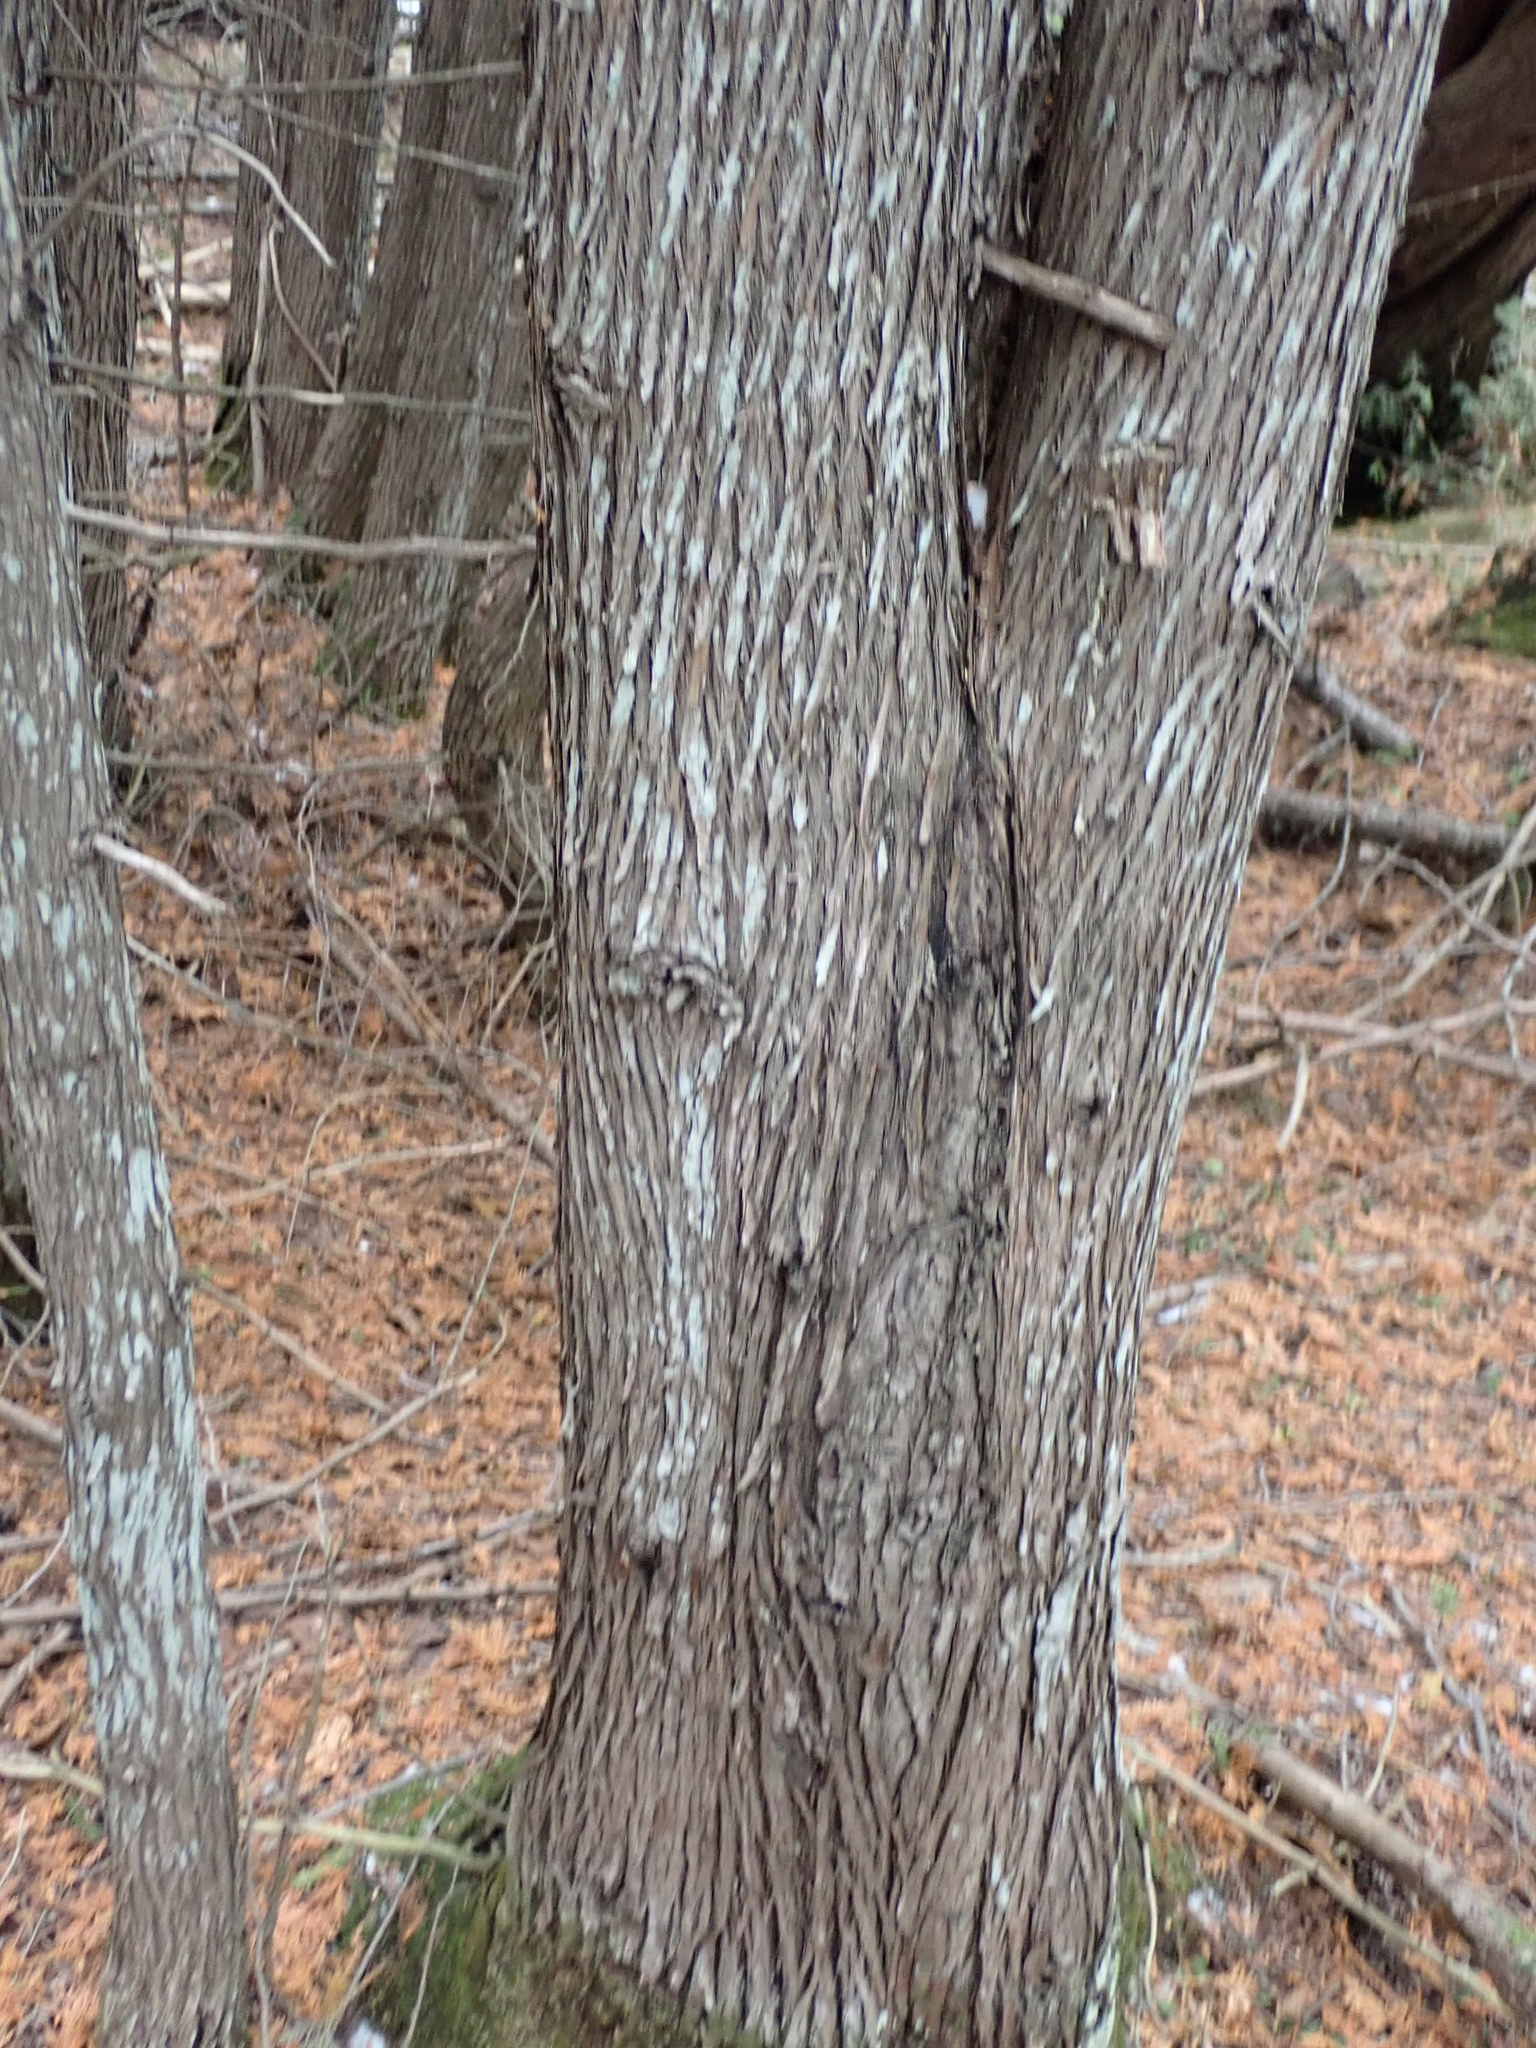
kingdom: Plantae
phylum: Tracheophyta
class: Pinopsida
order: Pinales
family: Cupressaceae
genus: Thuja
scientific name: Thuja occidentalis
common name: Northern white-cedar
